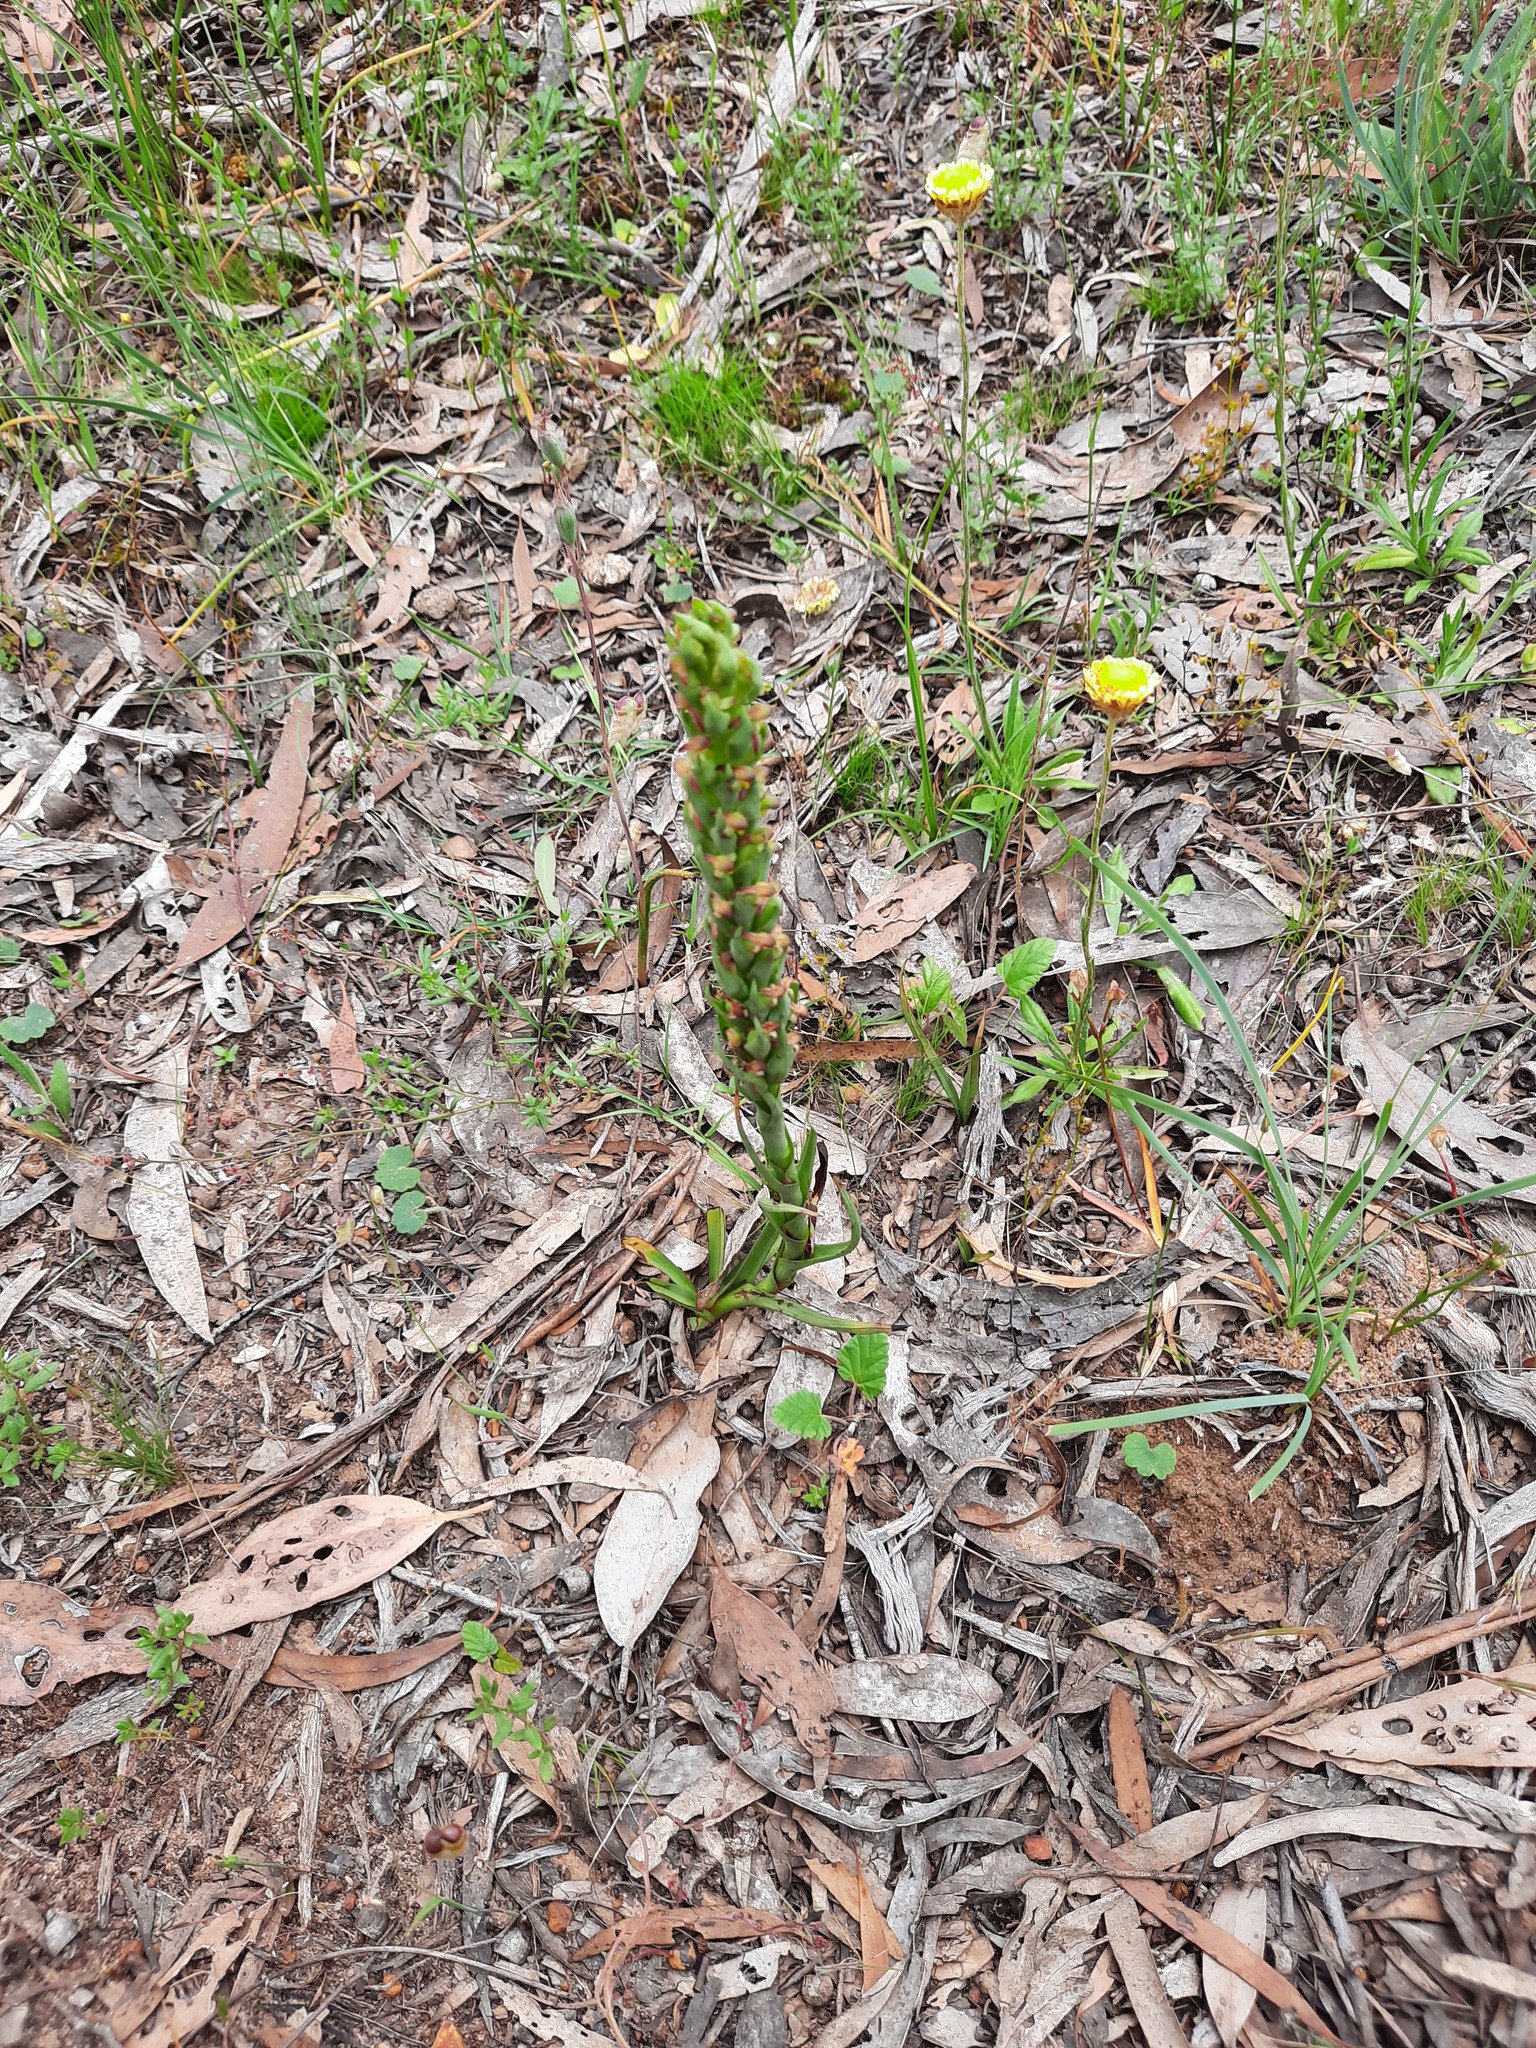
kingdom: Plantae
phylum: Tracheophyta
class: Liliopsida
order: Asparagales
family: Orchidaceae
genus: Disa
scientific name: Disa bracteata
